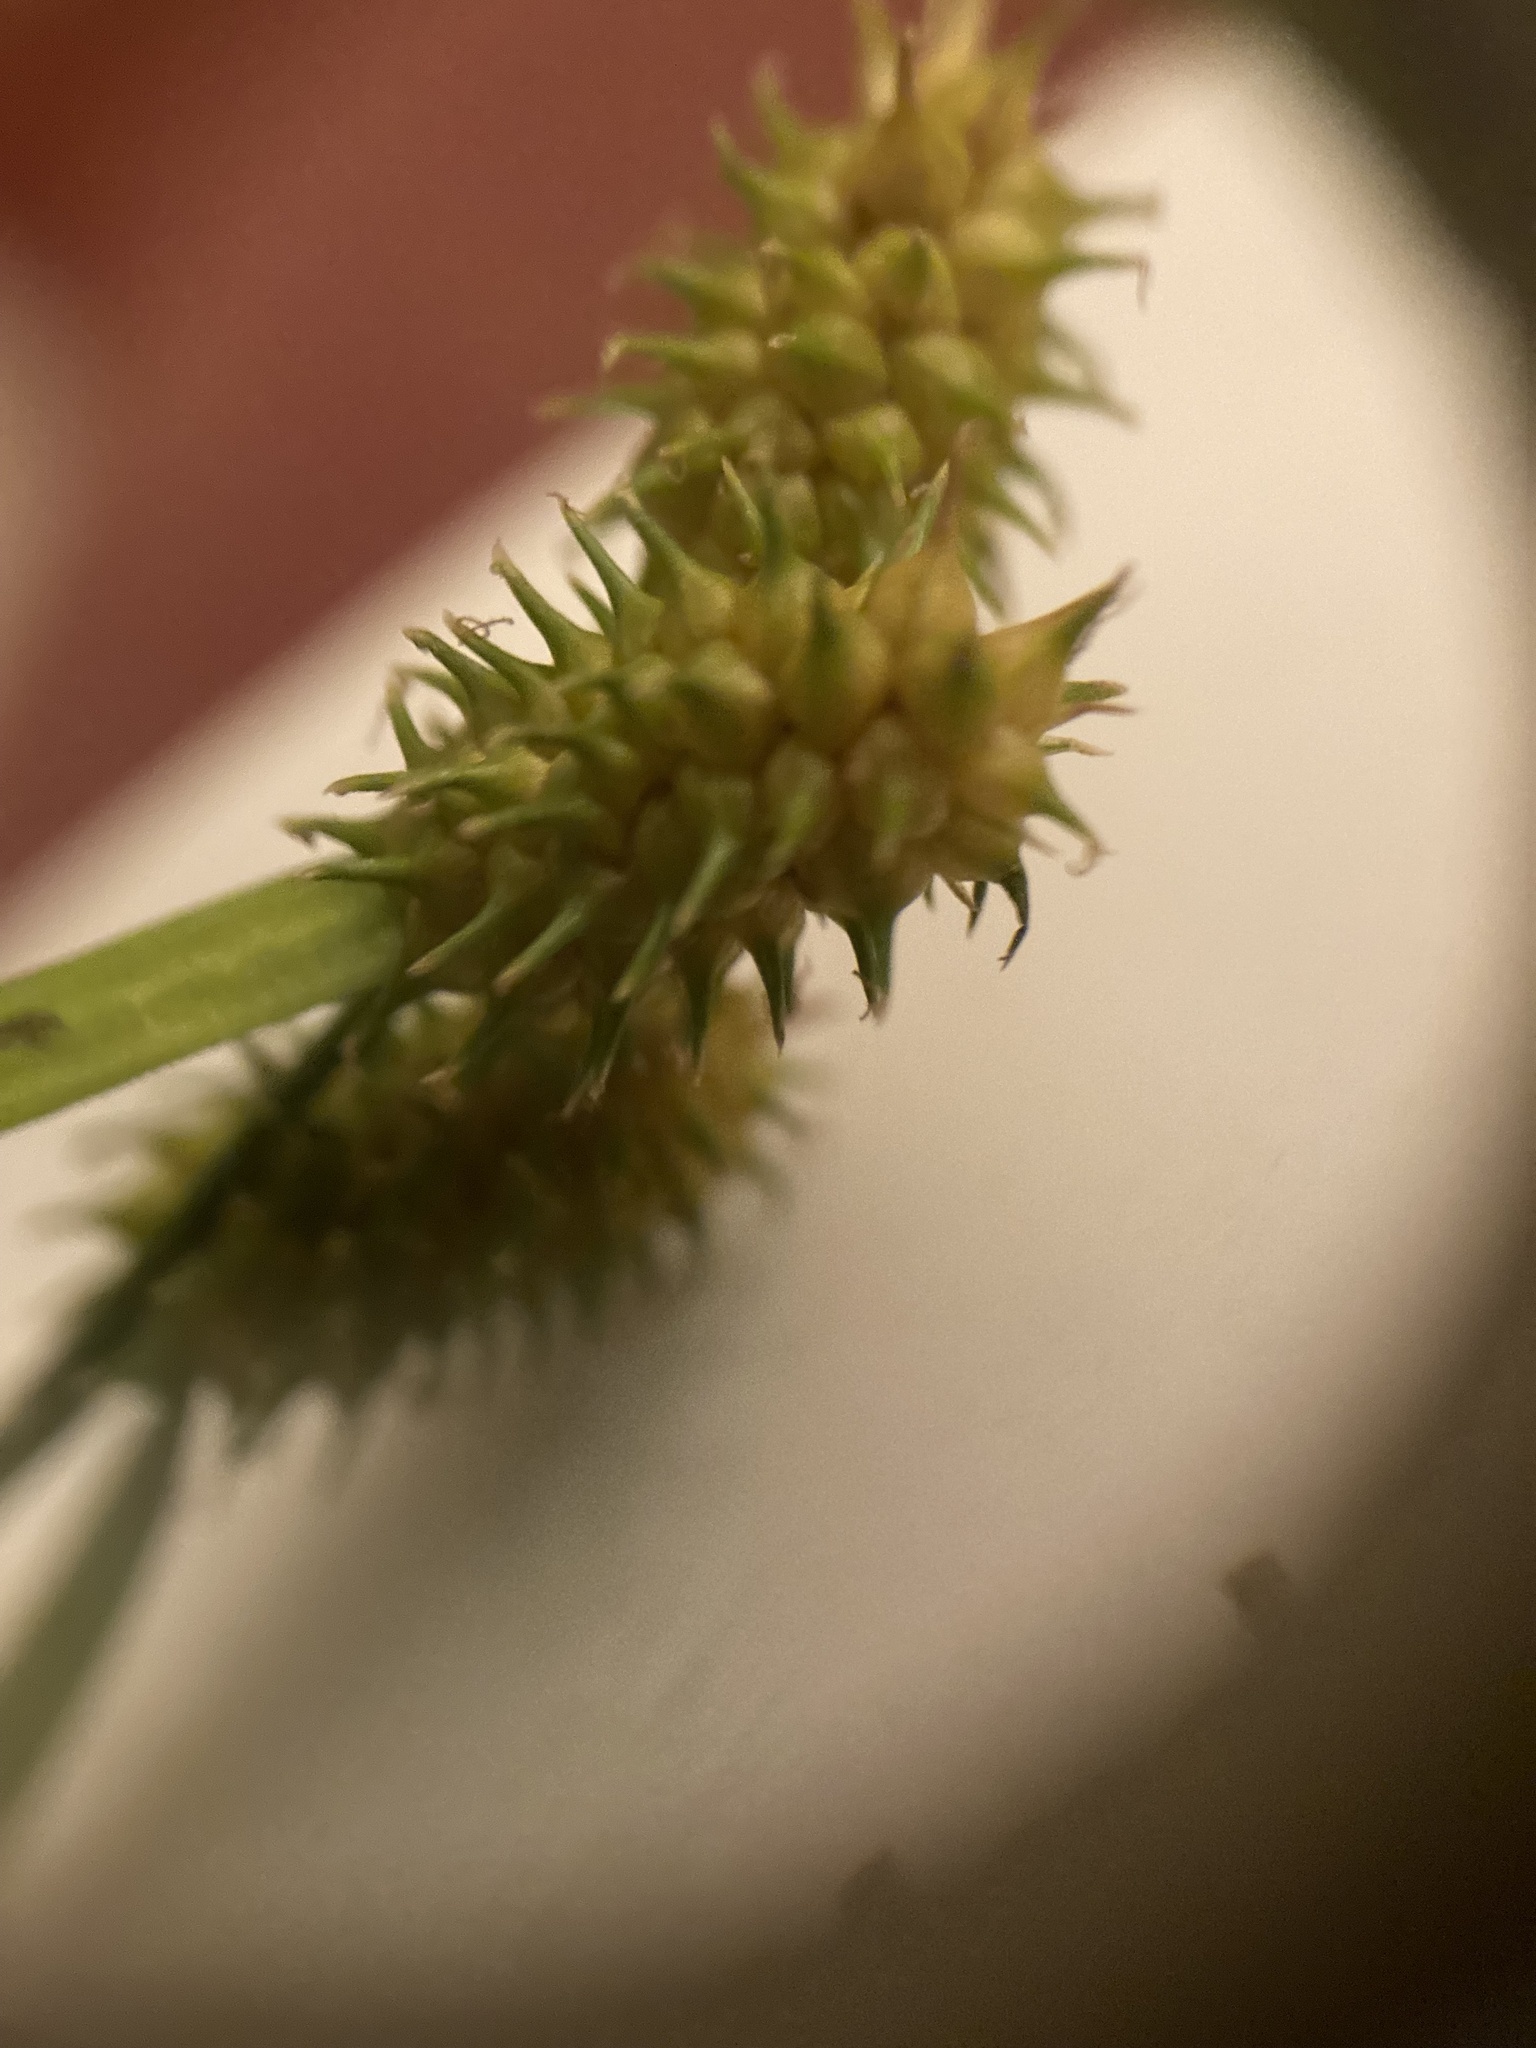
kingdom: Plantae
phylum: Tracheophyta
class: Liliopsida
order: Poales
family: Cyperaceae
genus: Carex
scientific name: Carex cryptolepis
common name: Northeastern sedge
